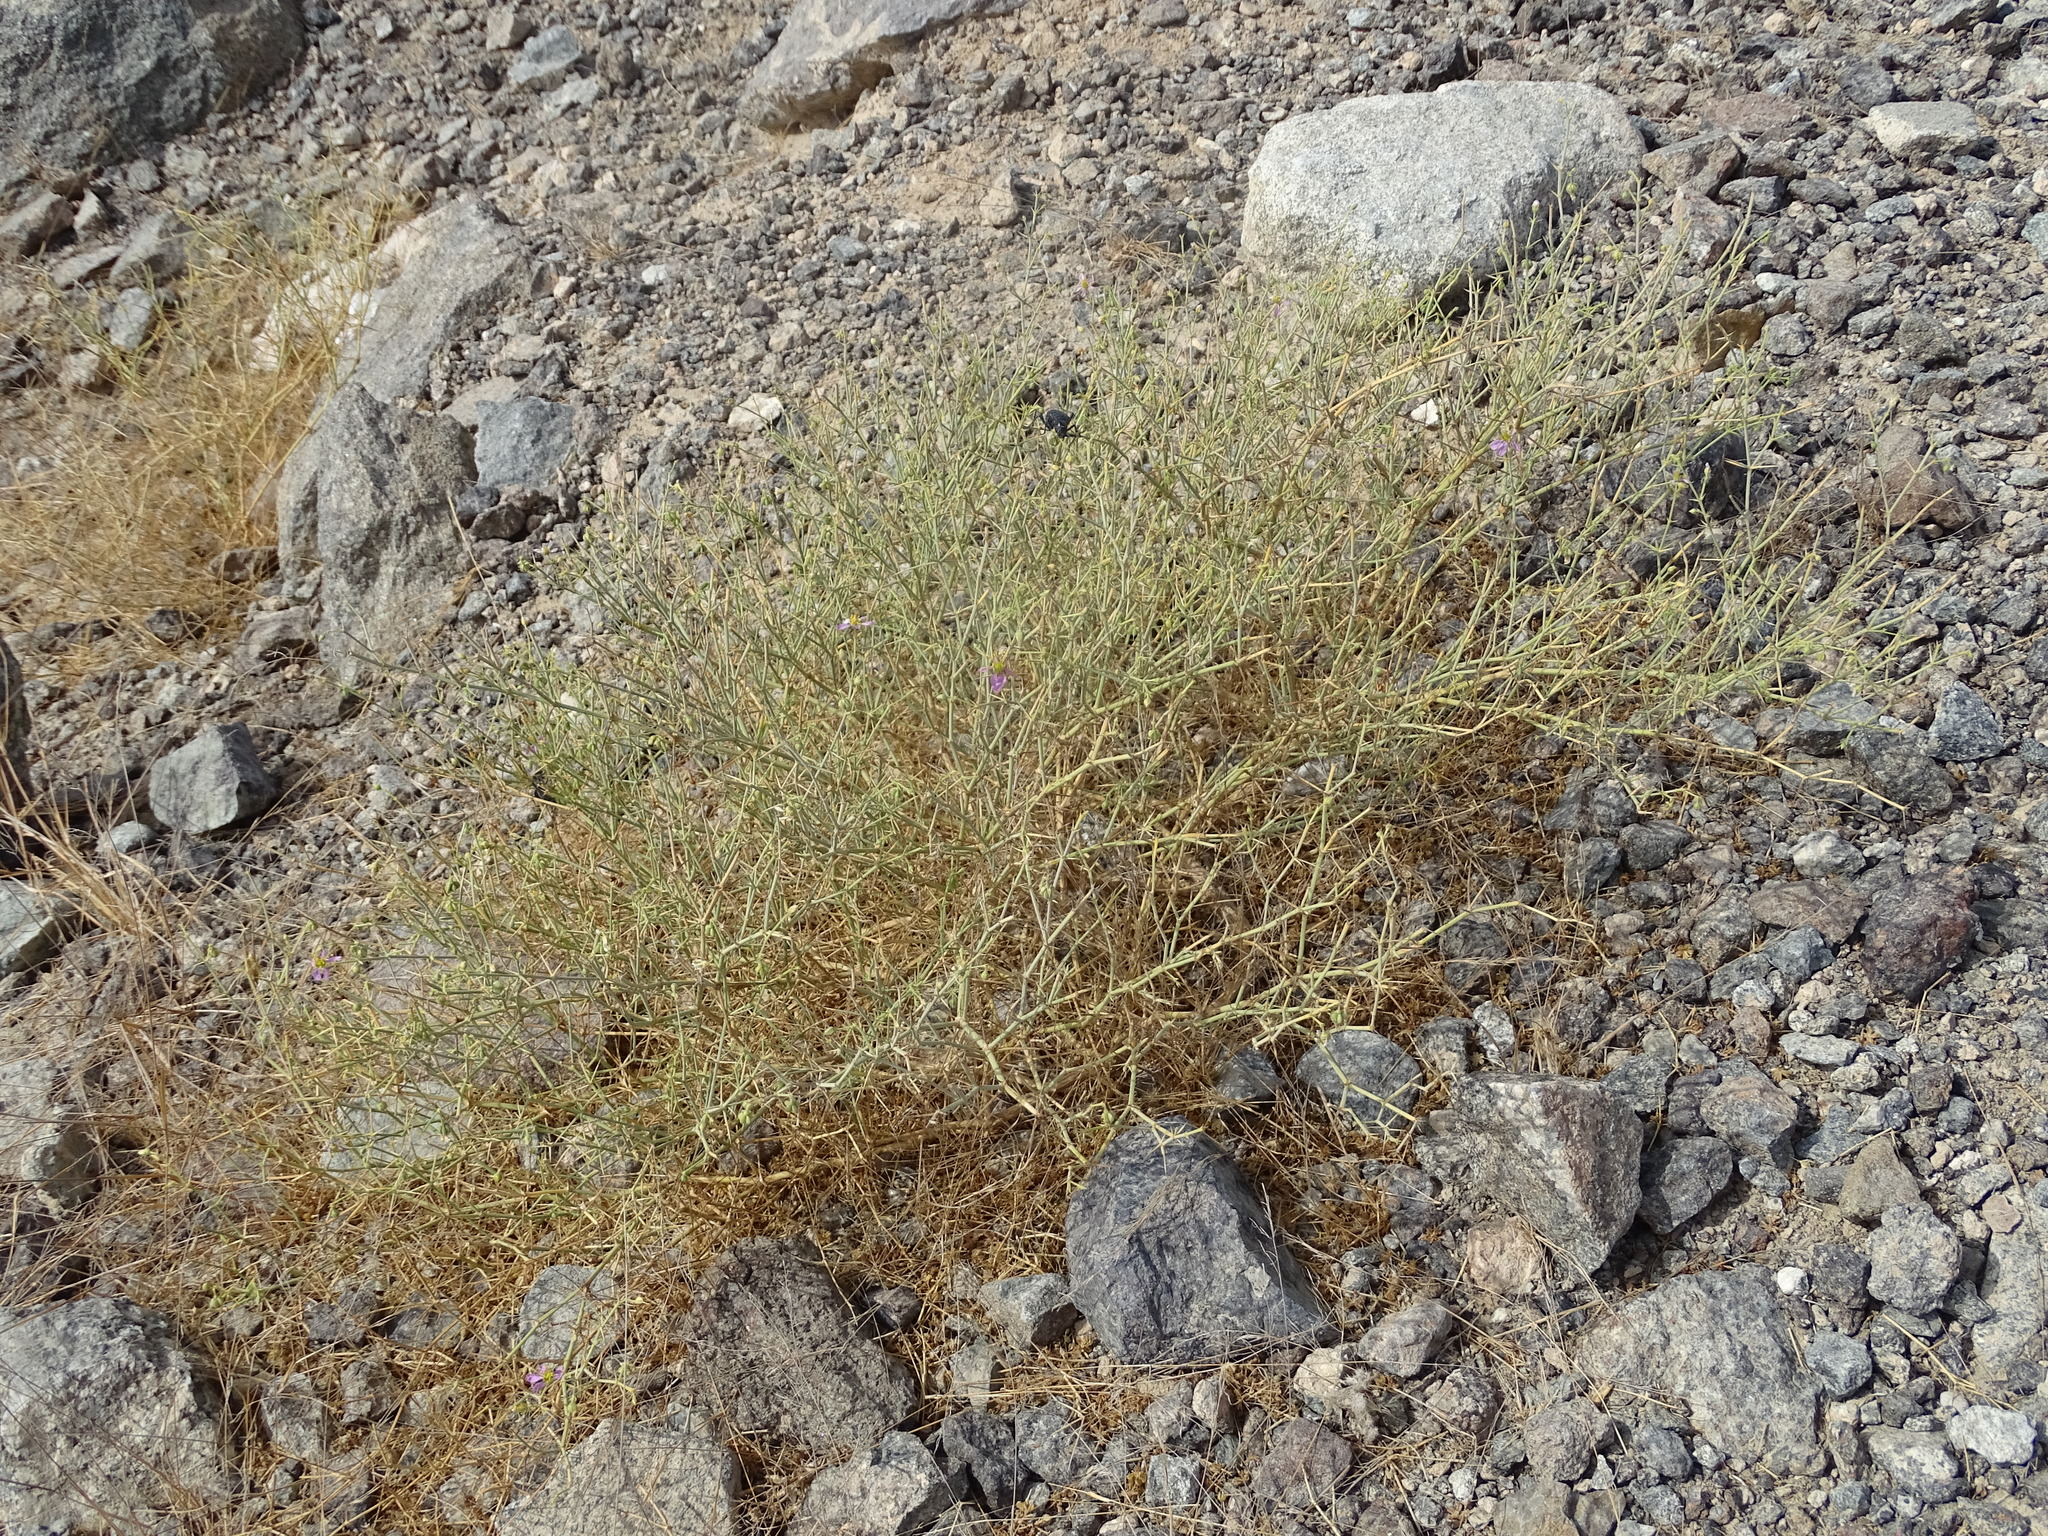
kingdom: Plantae
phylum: Tracheophyta
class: Magnoliopsida
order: Zygophyllales
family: Zygophyllaceae
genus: Fagonia
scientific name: Fagonia indica
